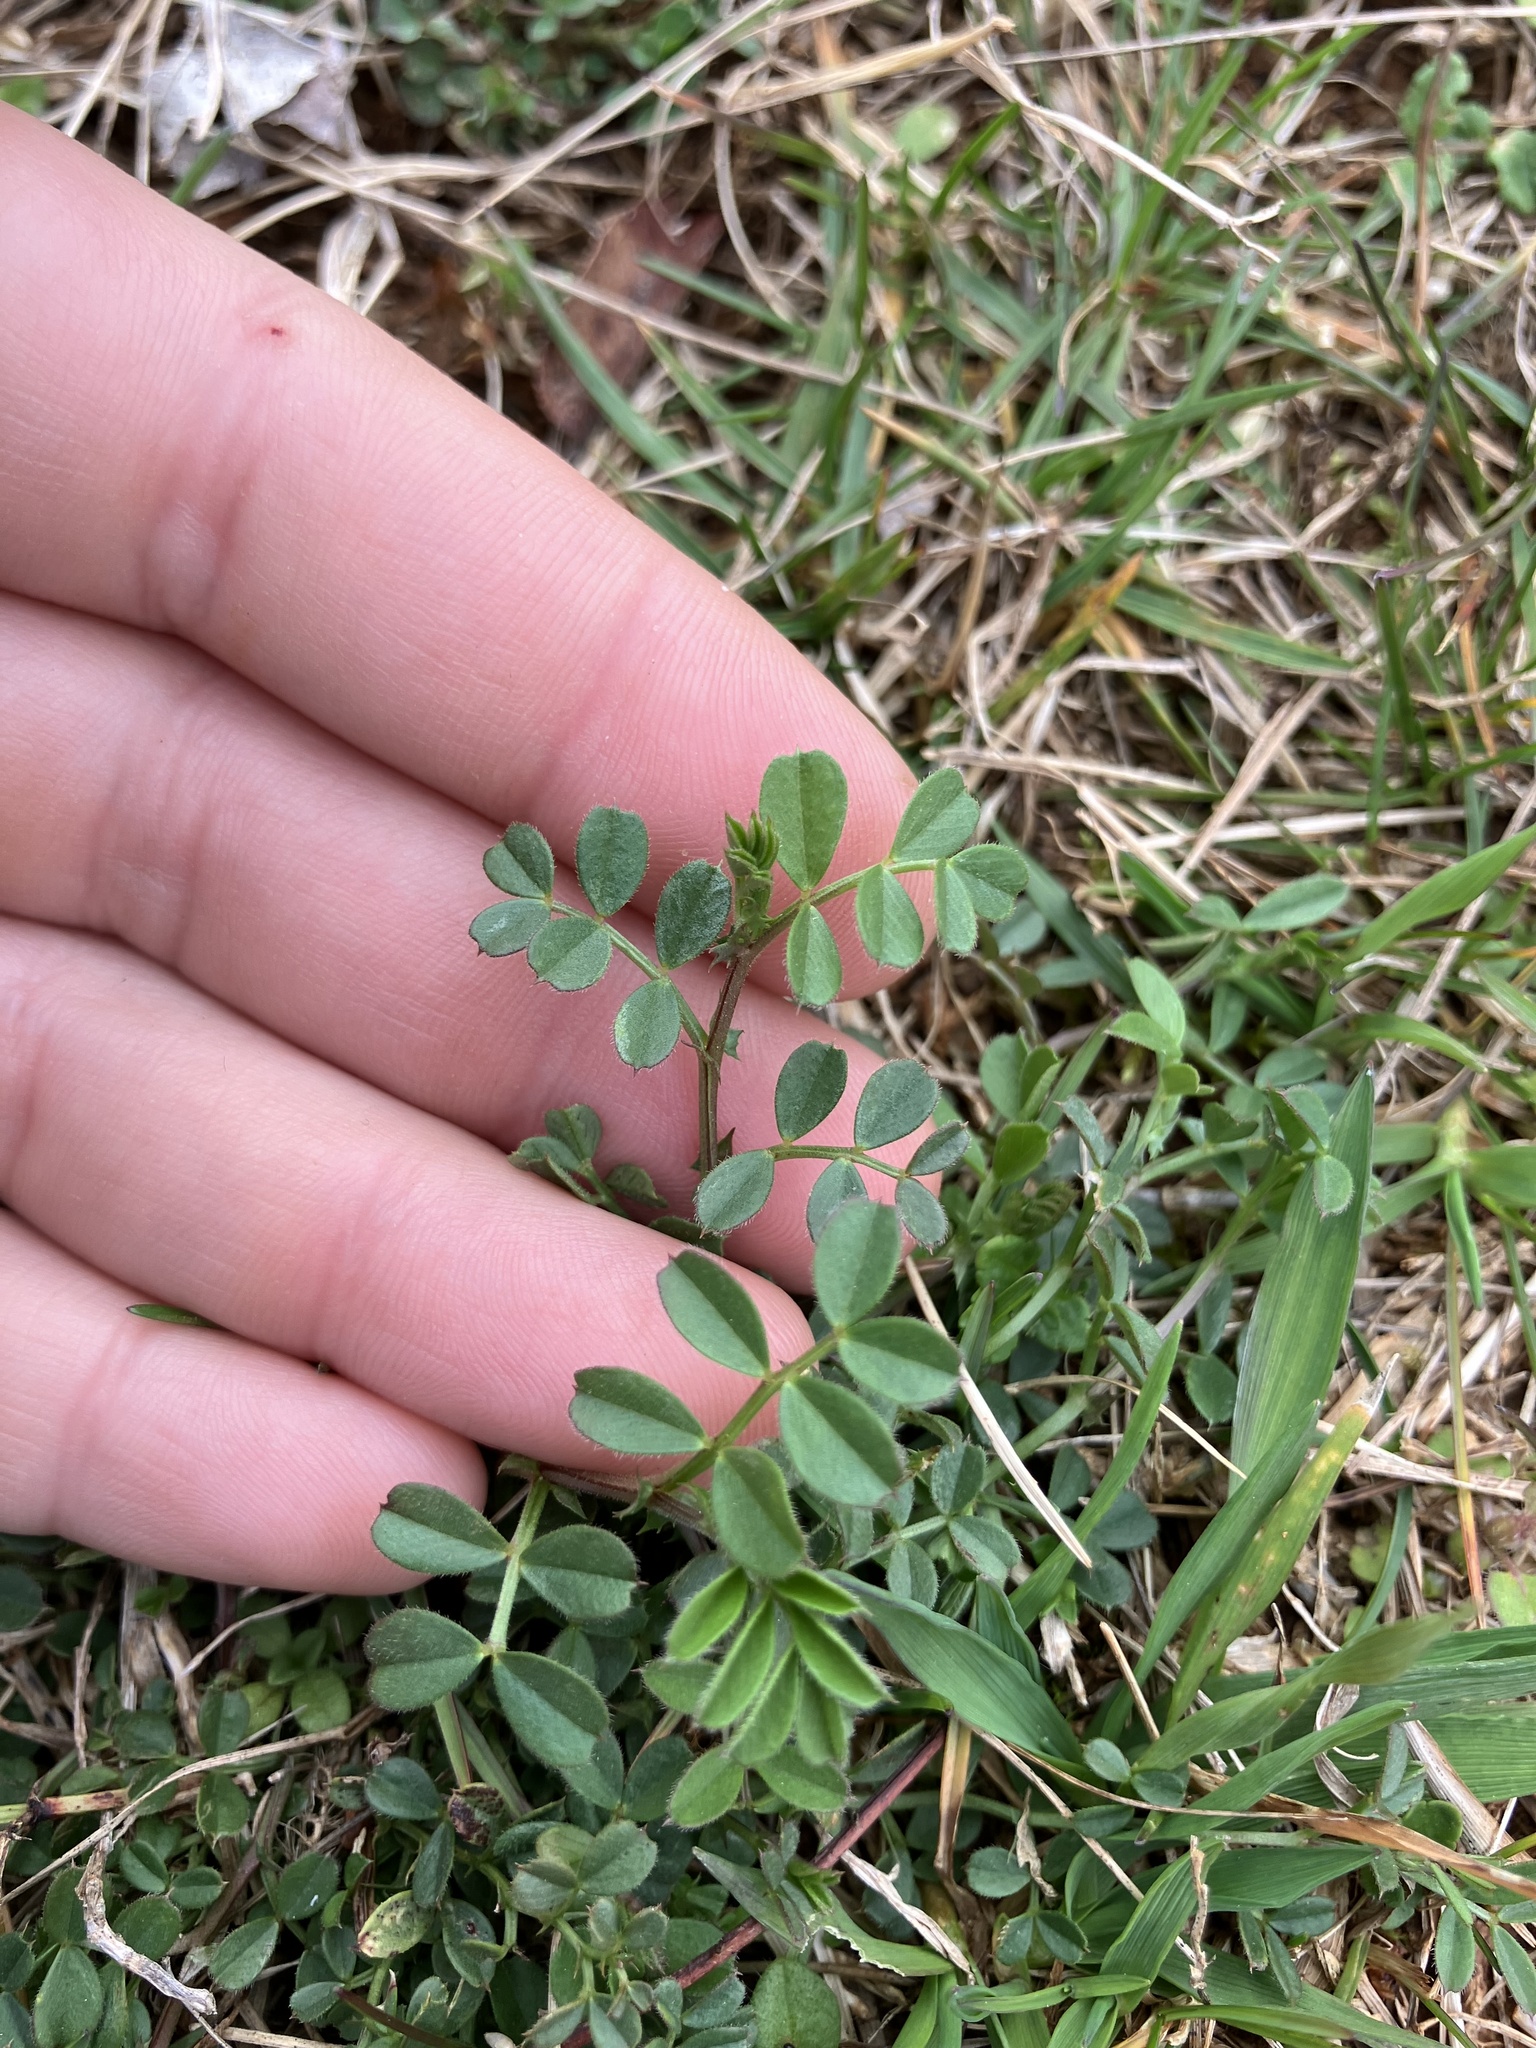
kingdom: Plantae
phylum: Tracheophyta
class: Magnoliopsida
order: Fabales
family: Fabaceae
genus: Vicia
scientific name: Vicia lathyroides
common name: Spring vetch
